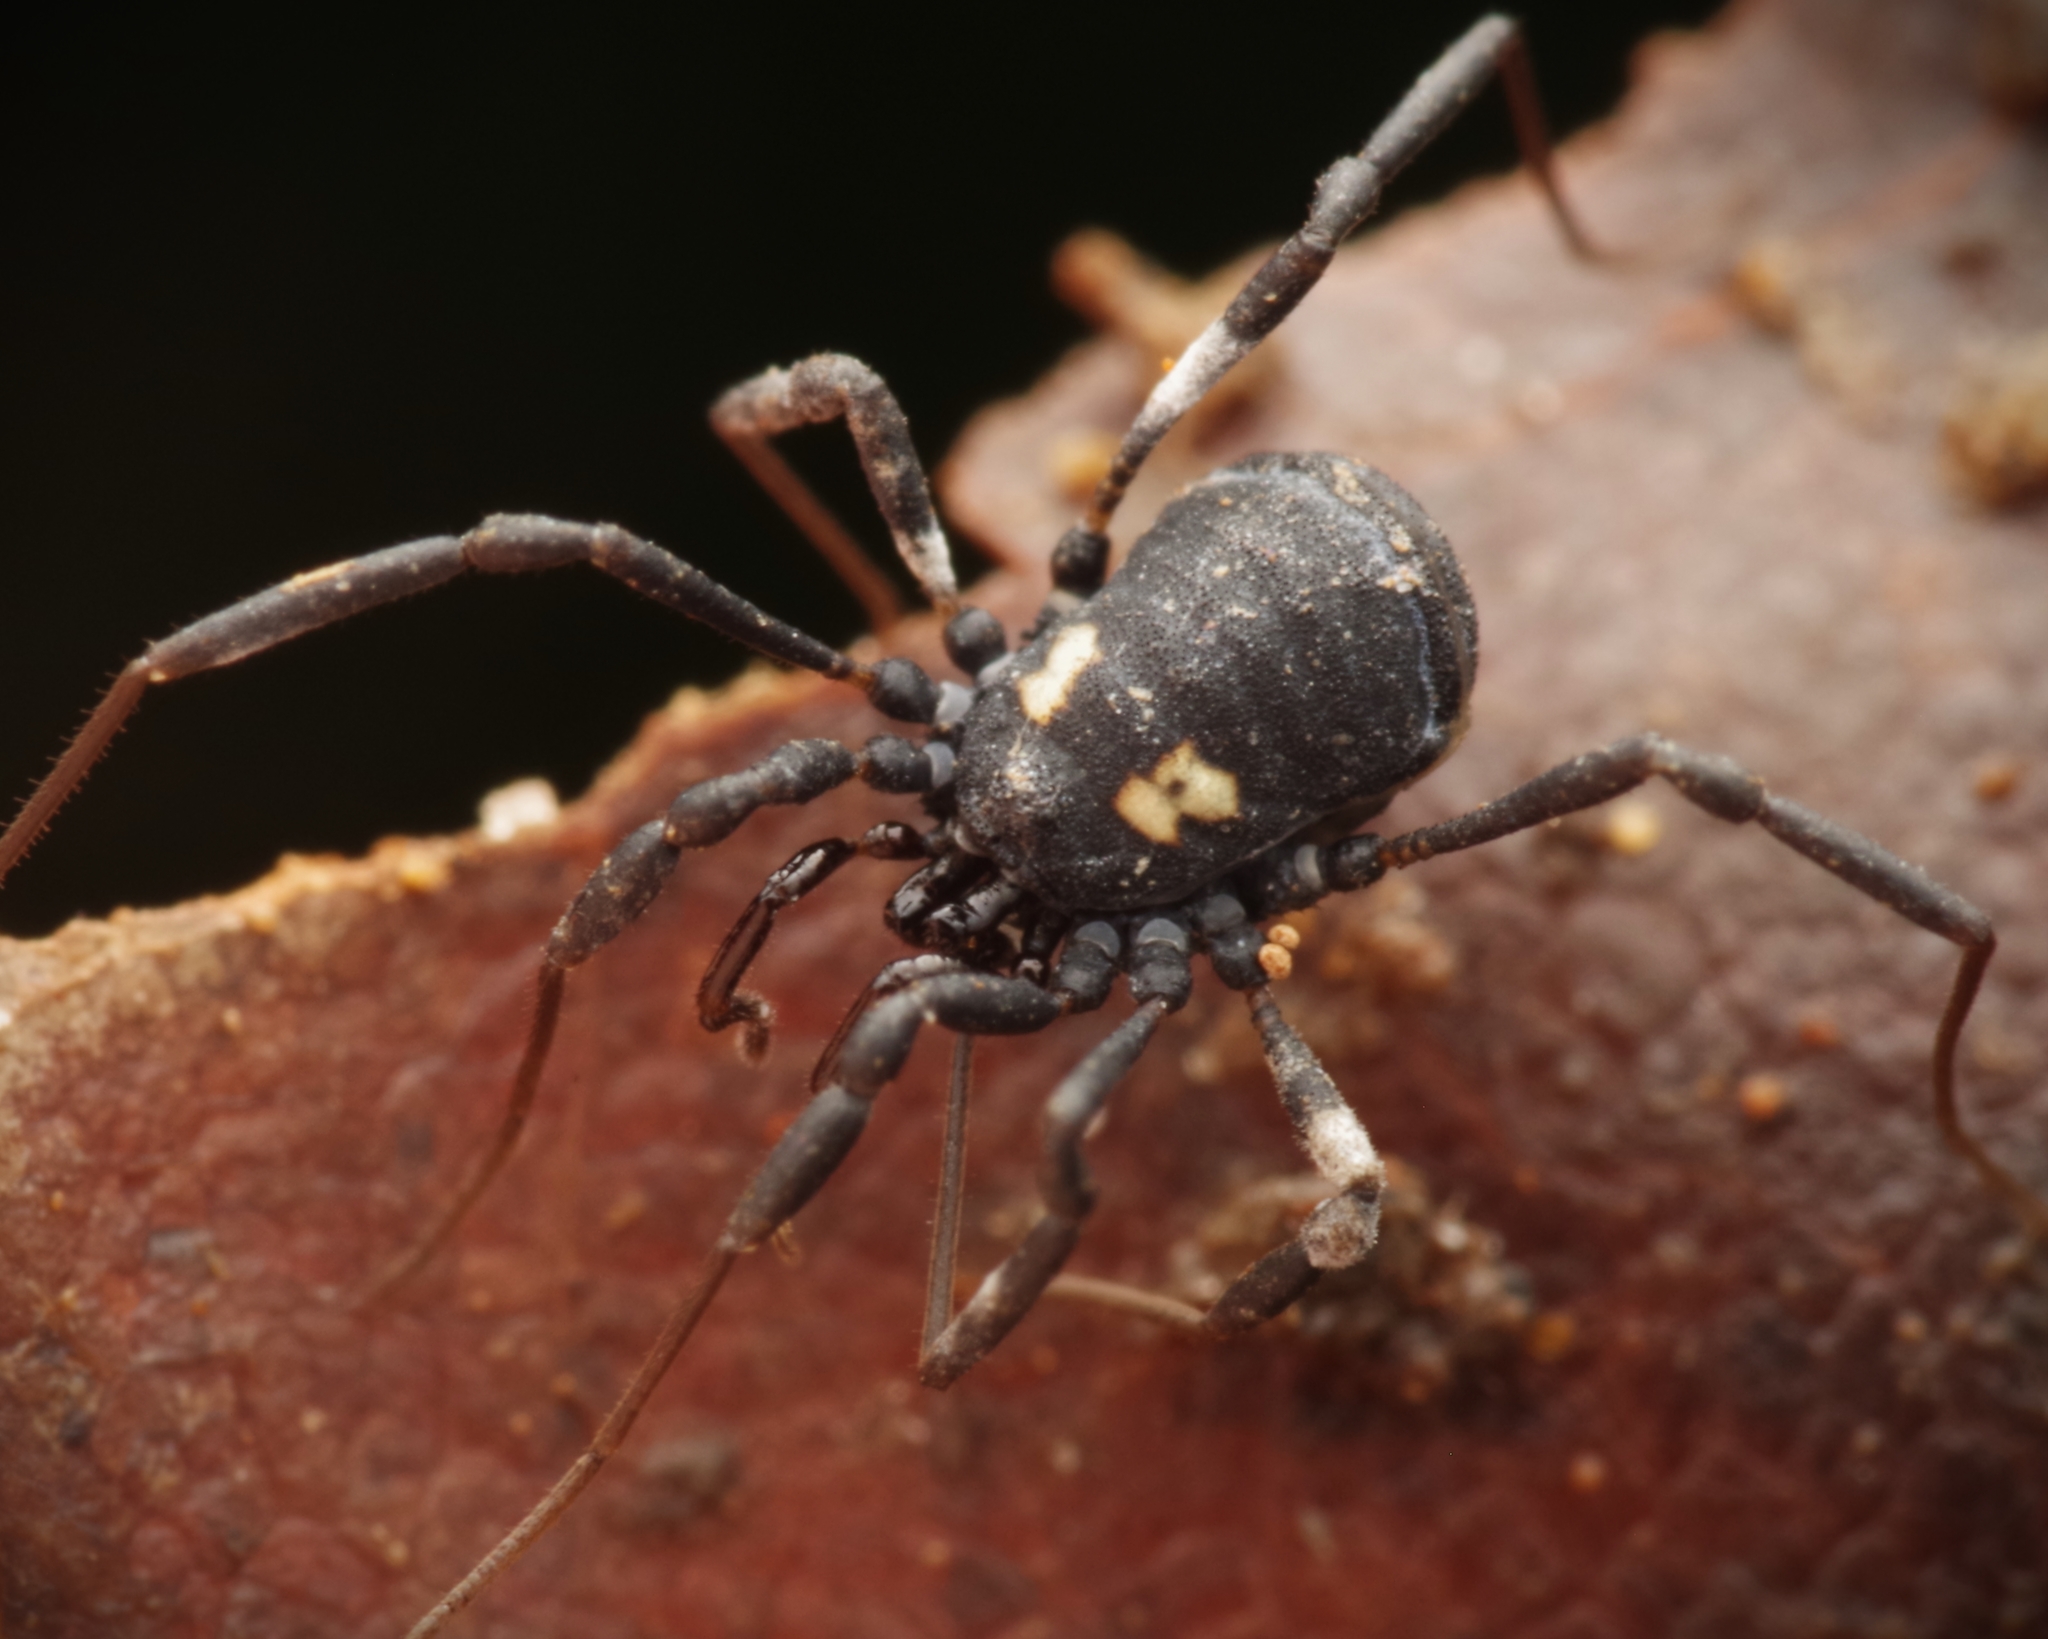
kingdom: Animalia
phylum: Arthropoda
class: Arachnida
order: Opiliones
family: Nemastomatidae
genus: Nemastoma
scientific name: Nemastoma bimaculatum
